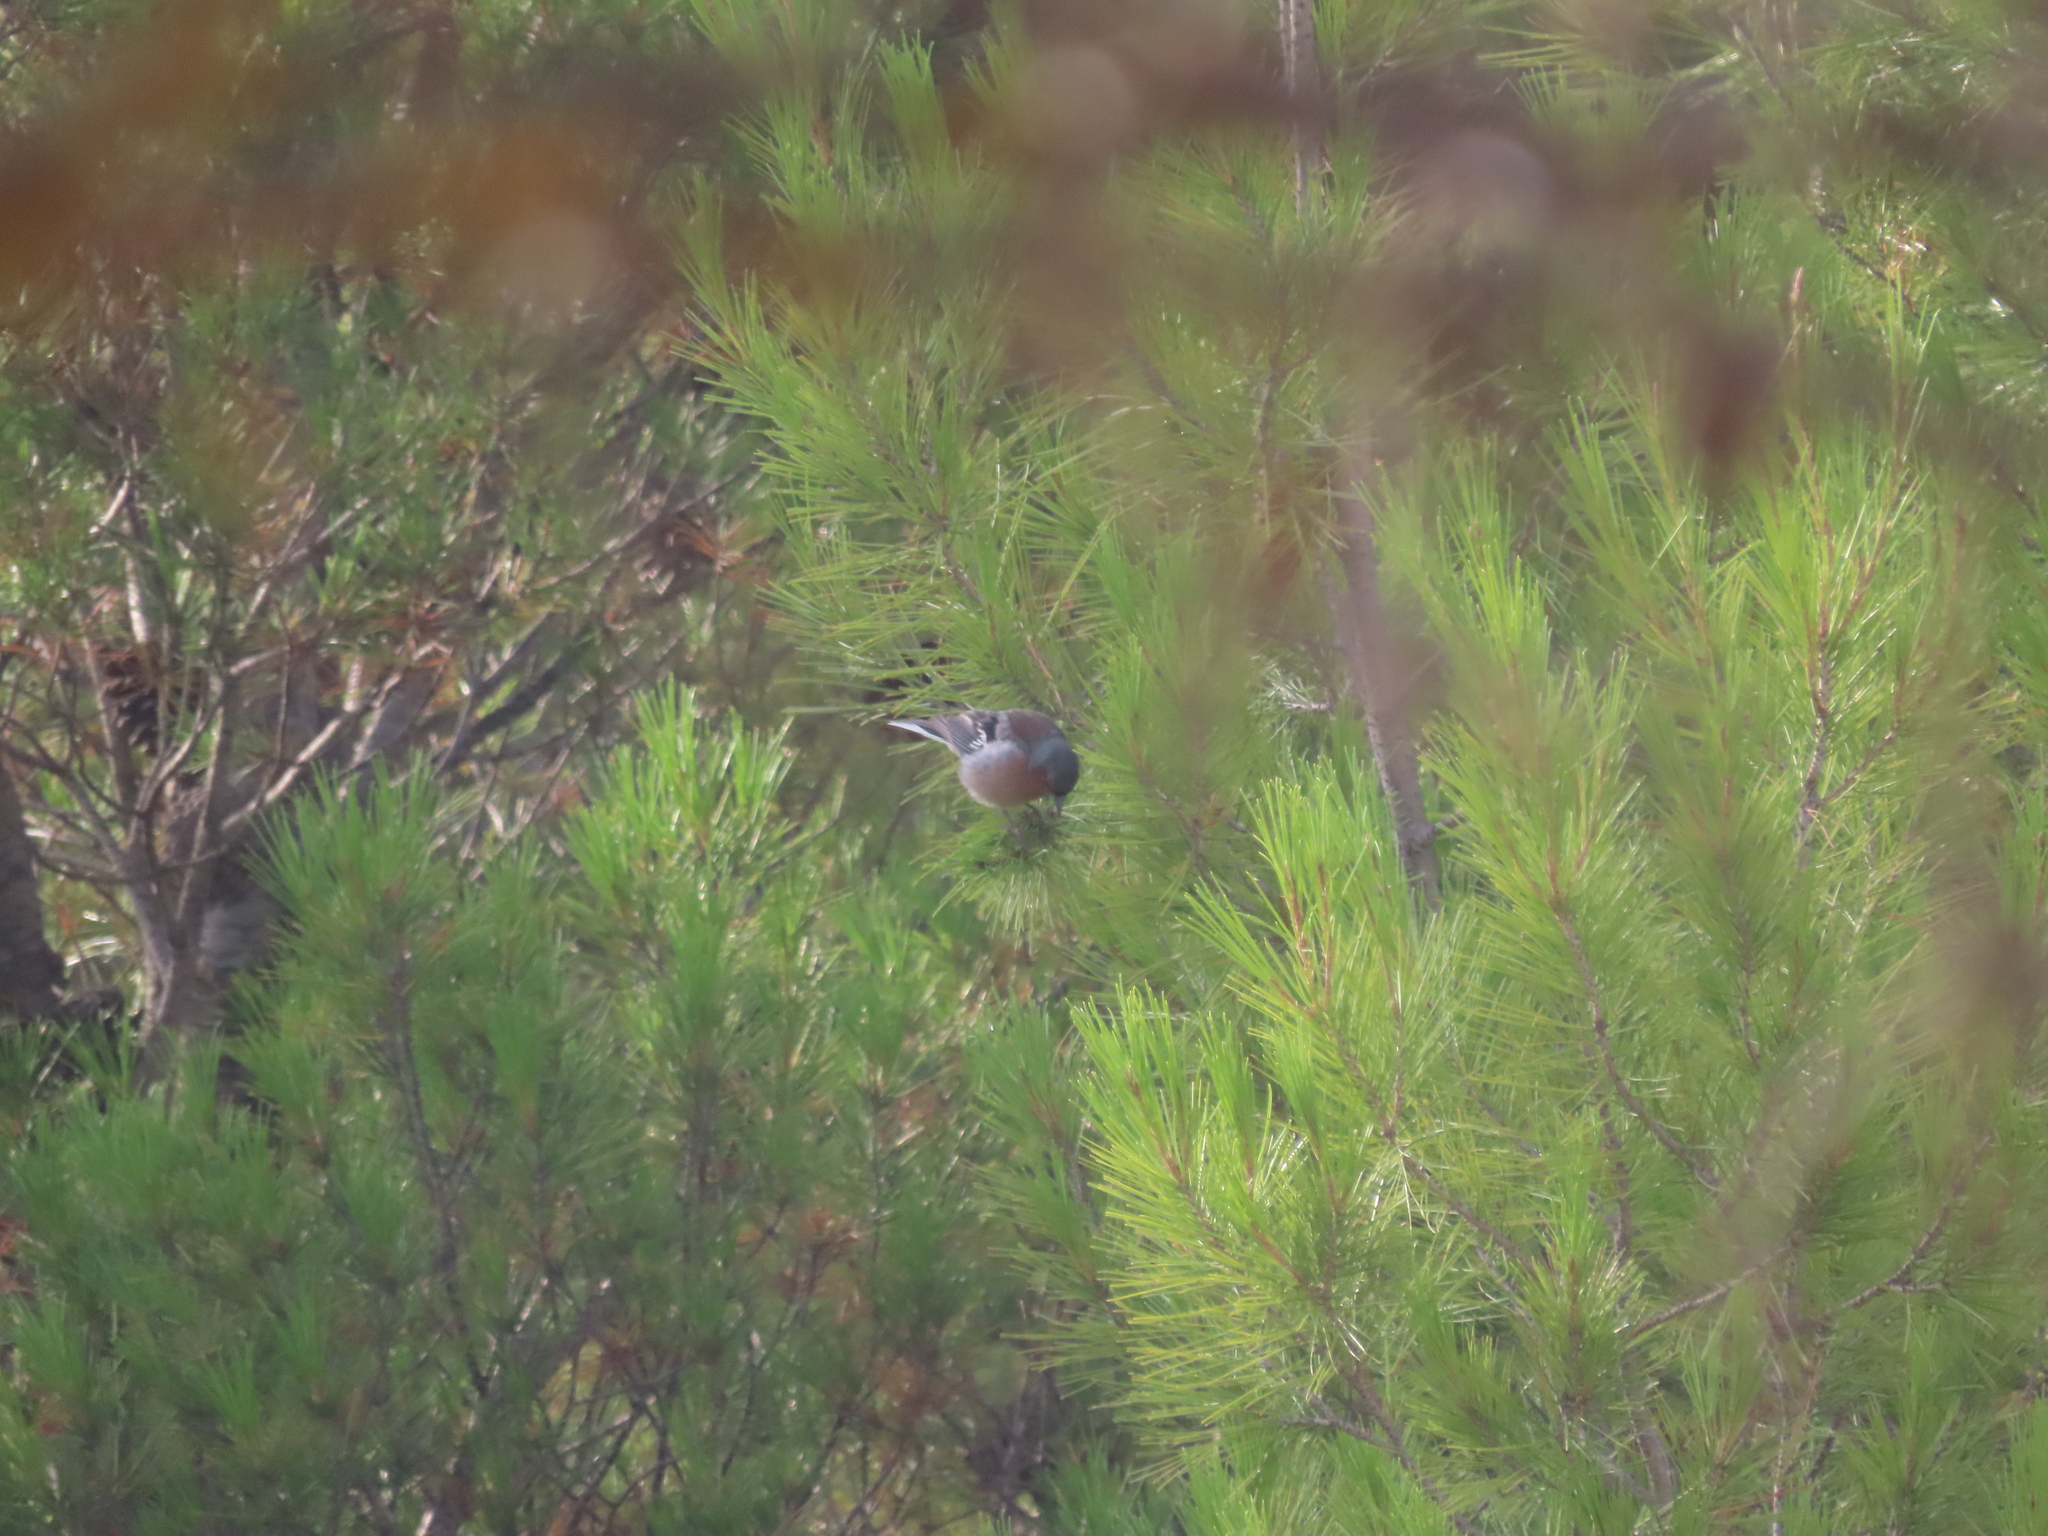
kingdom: Animalia
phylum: Chordata
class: Aves
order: Passeriformes
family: Fringillidae
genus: Fringilla
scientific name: Fringilla coelebs
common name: Common chaffinch
